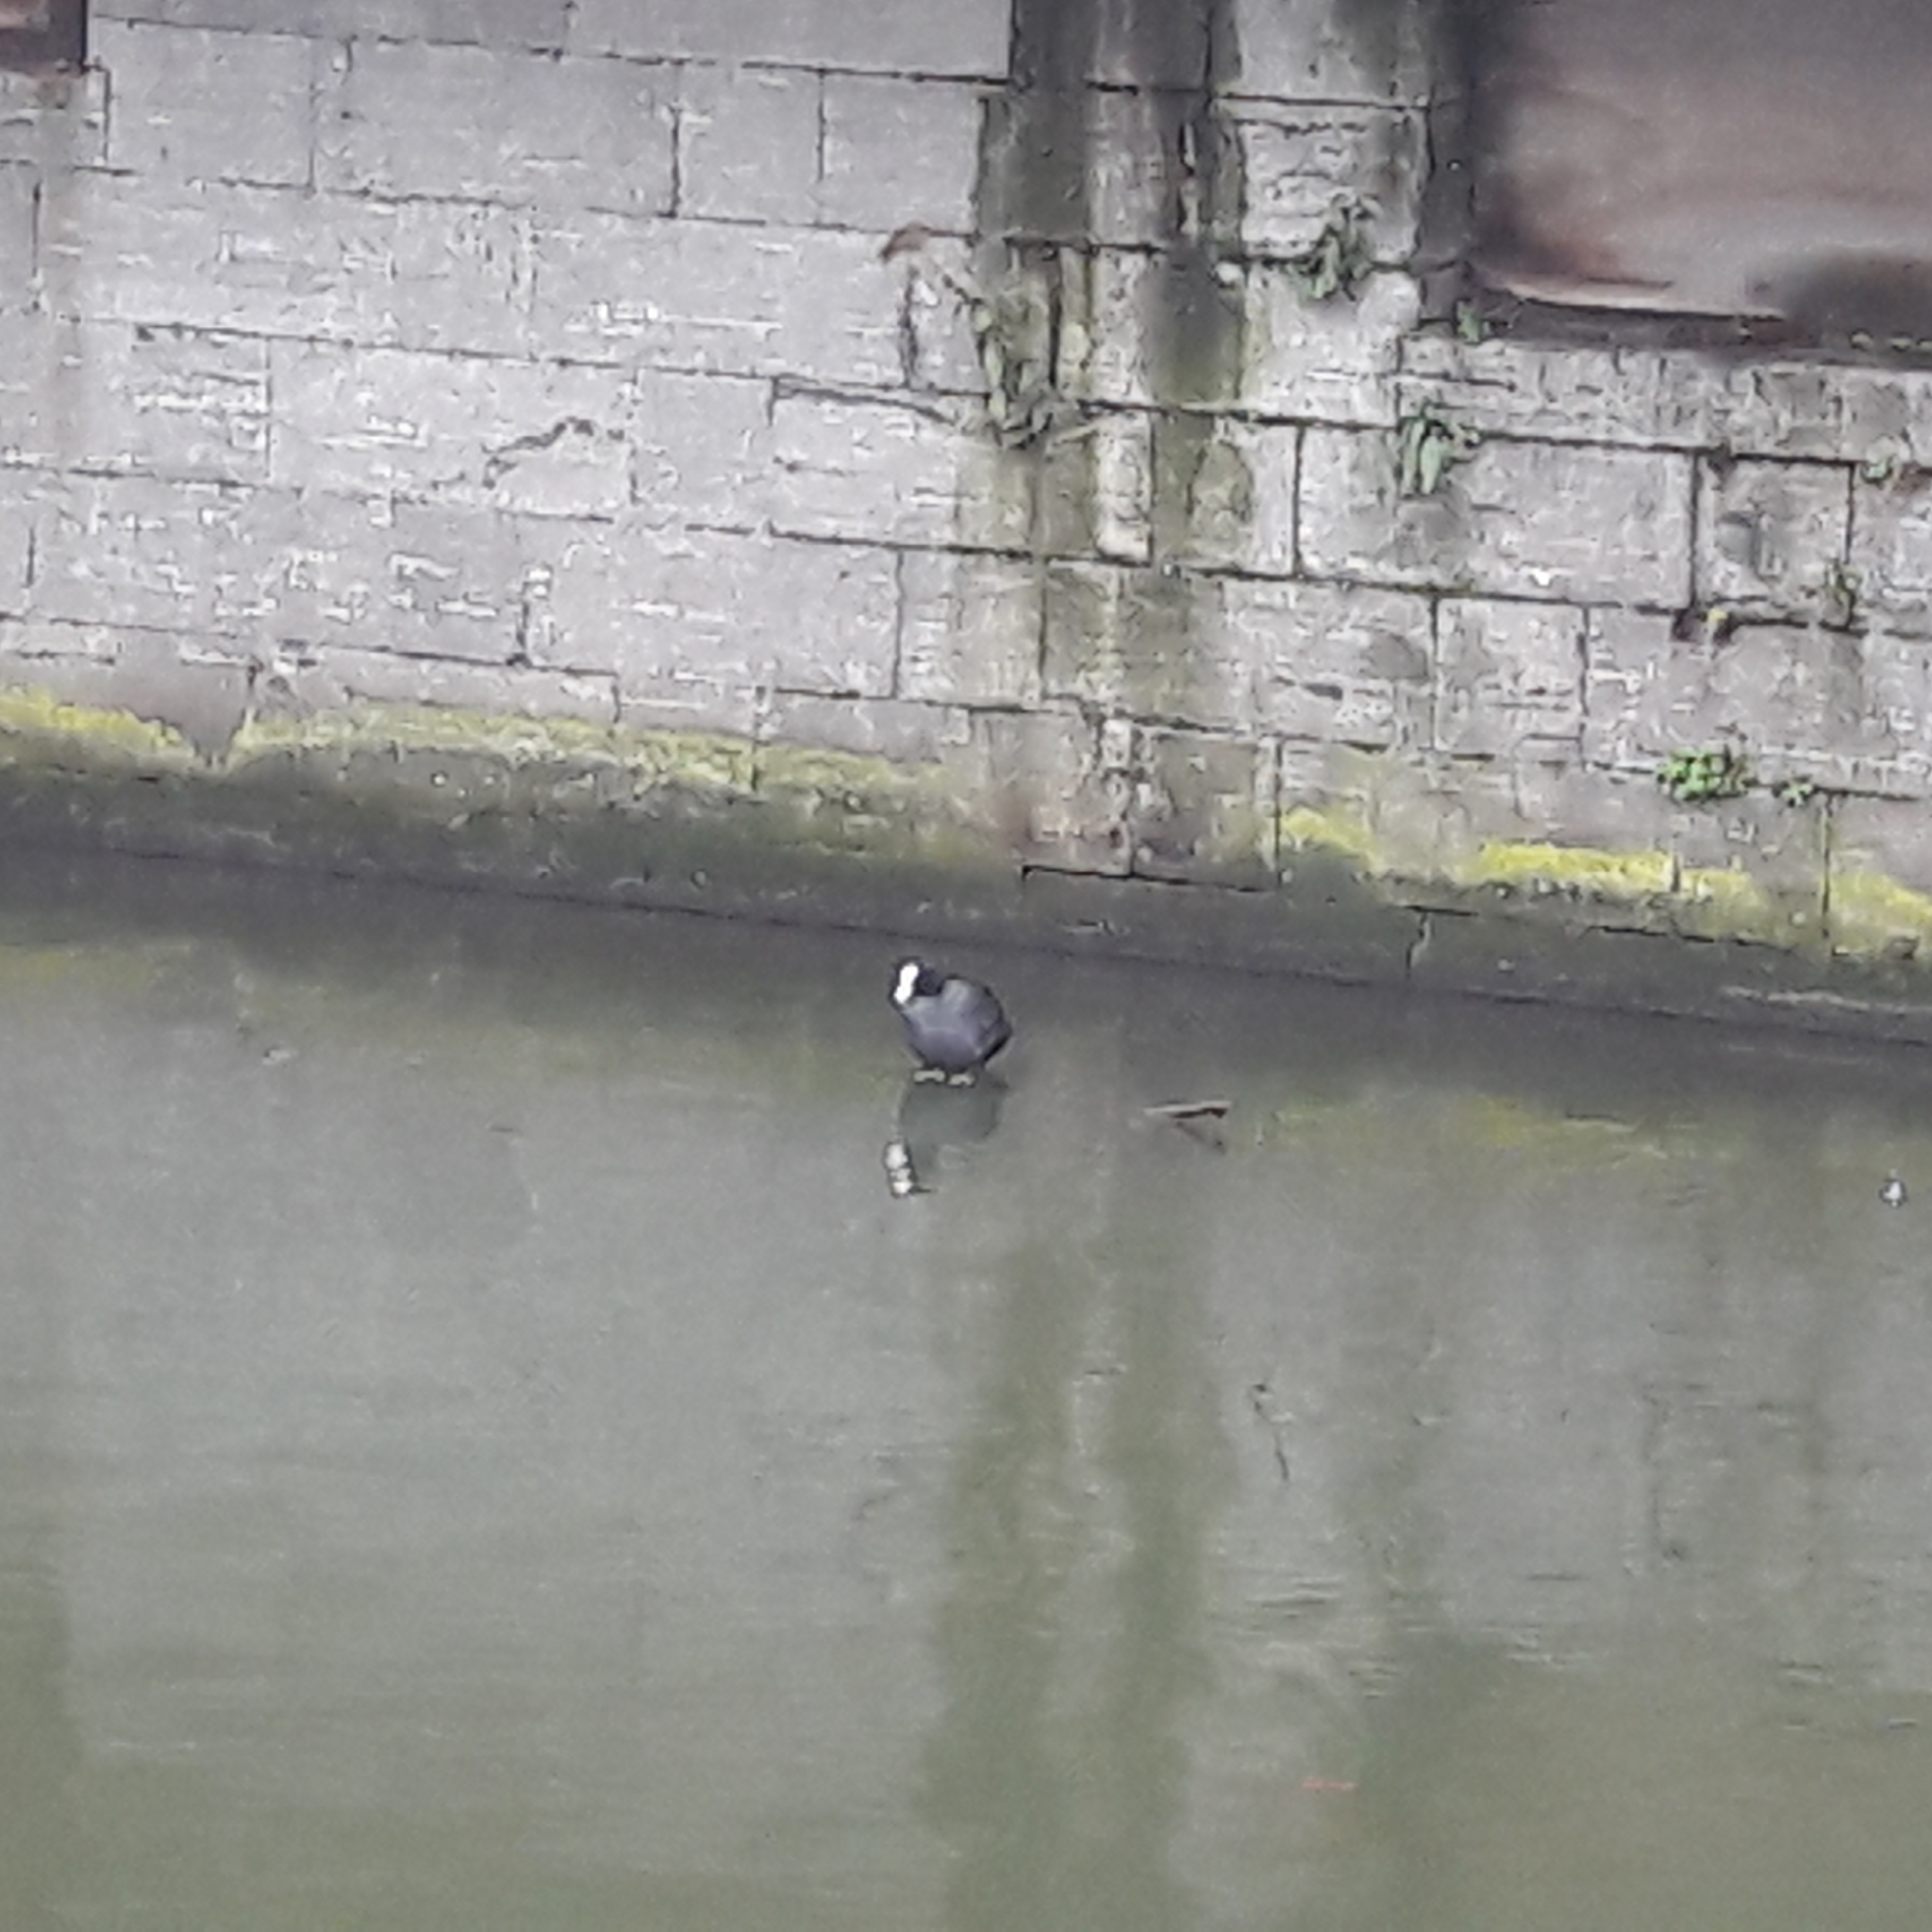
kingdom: Animalia
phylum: Chordata
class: Aves
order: Gruiformes
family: Rallidae
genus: Fulica
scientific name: Fulica atra
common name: Eurasian coot
